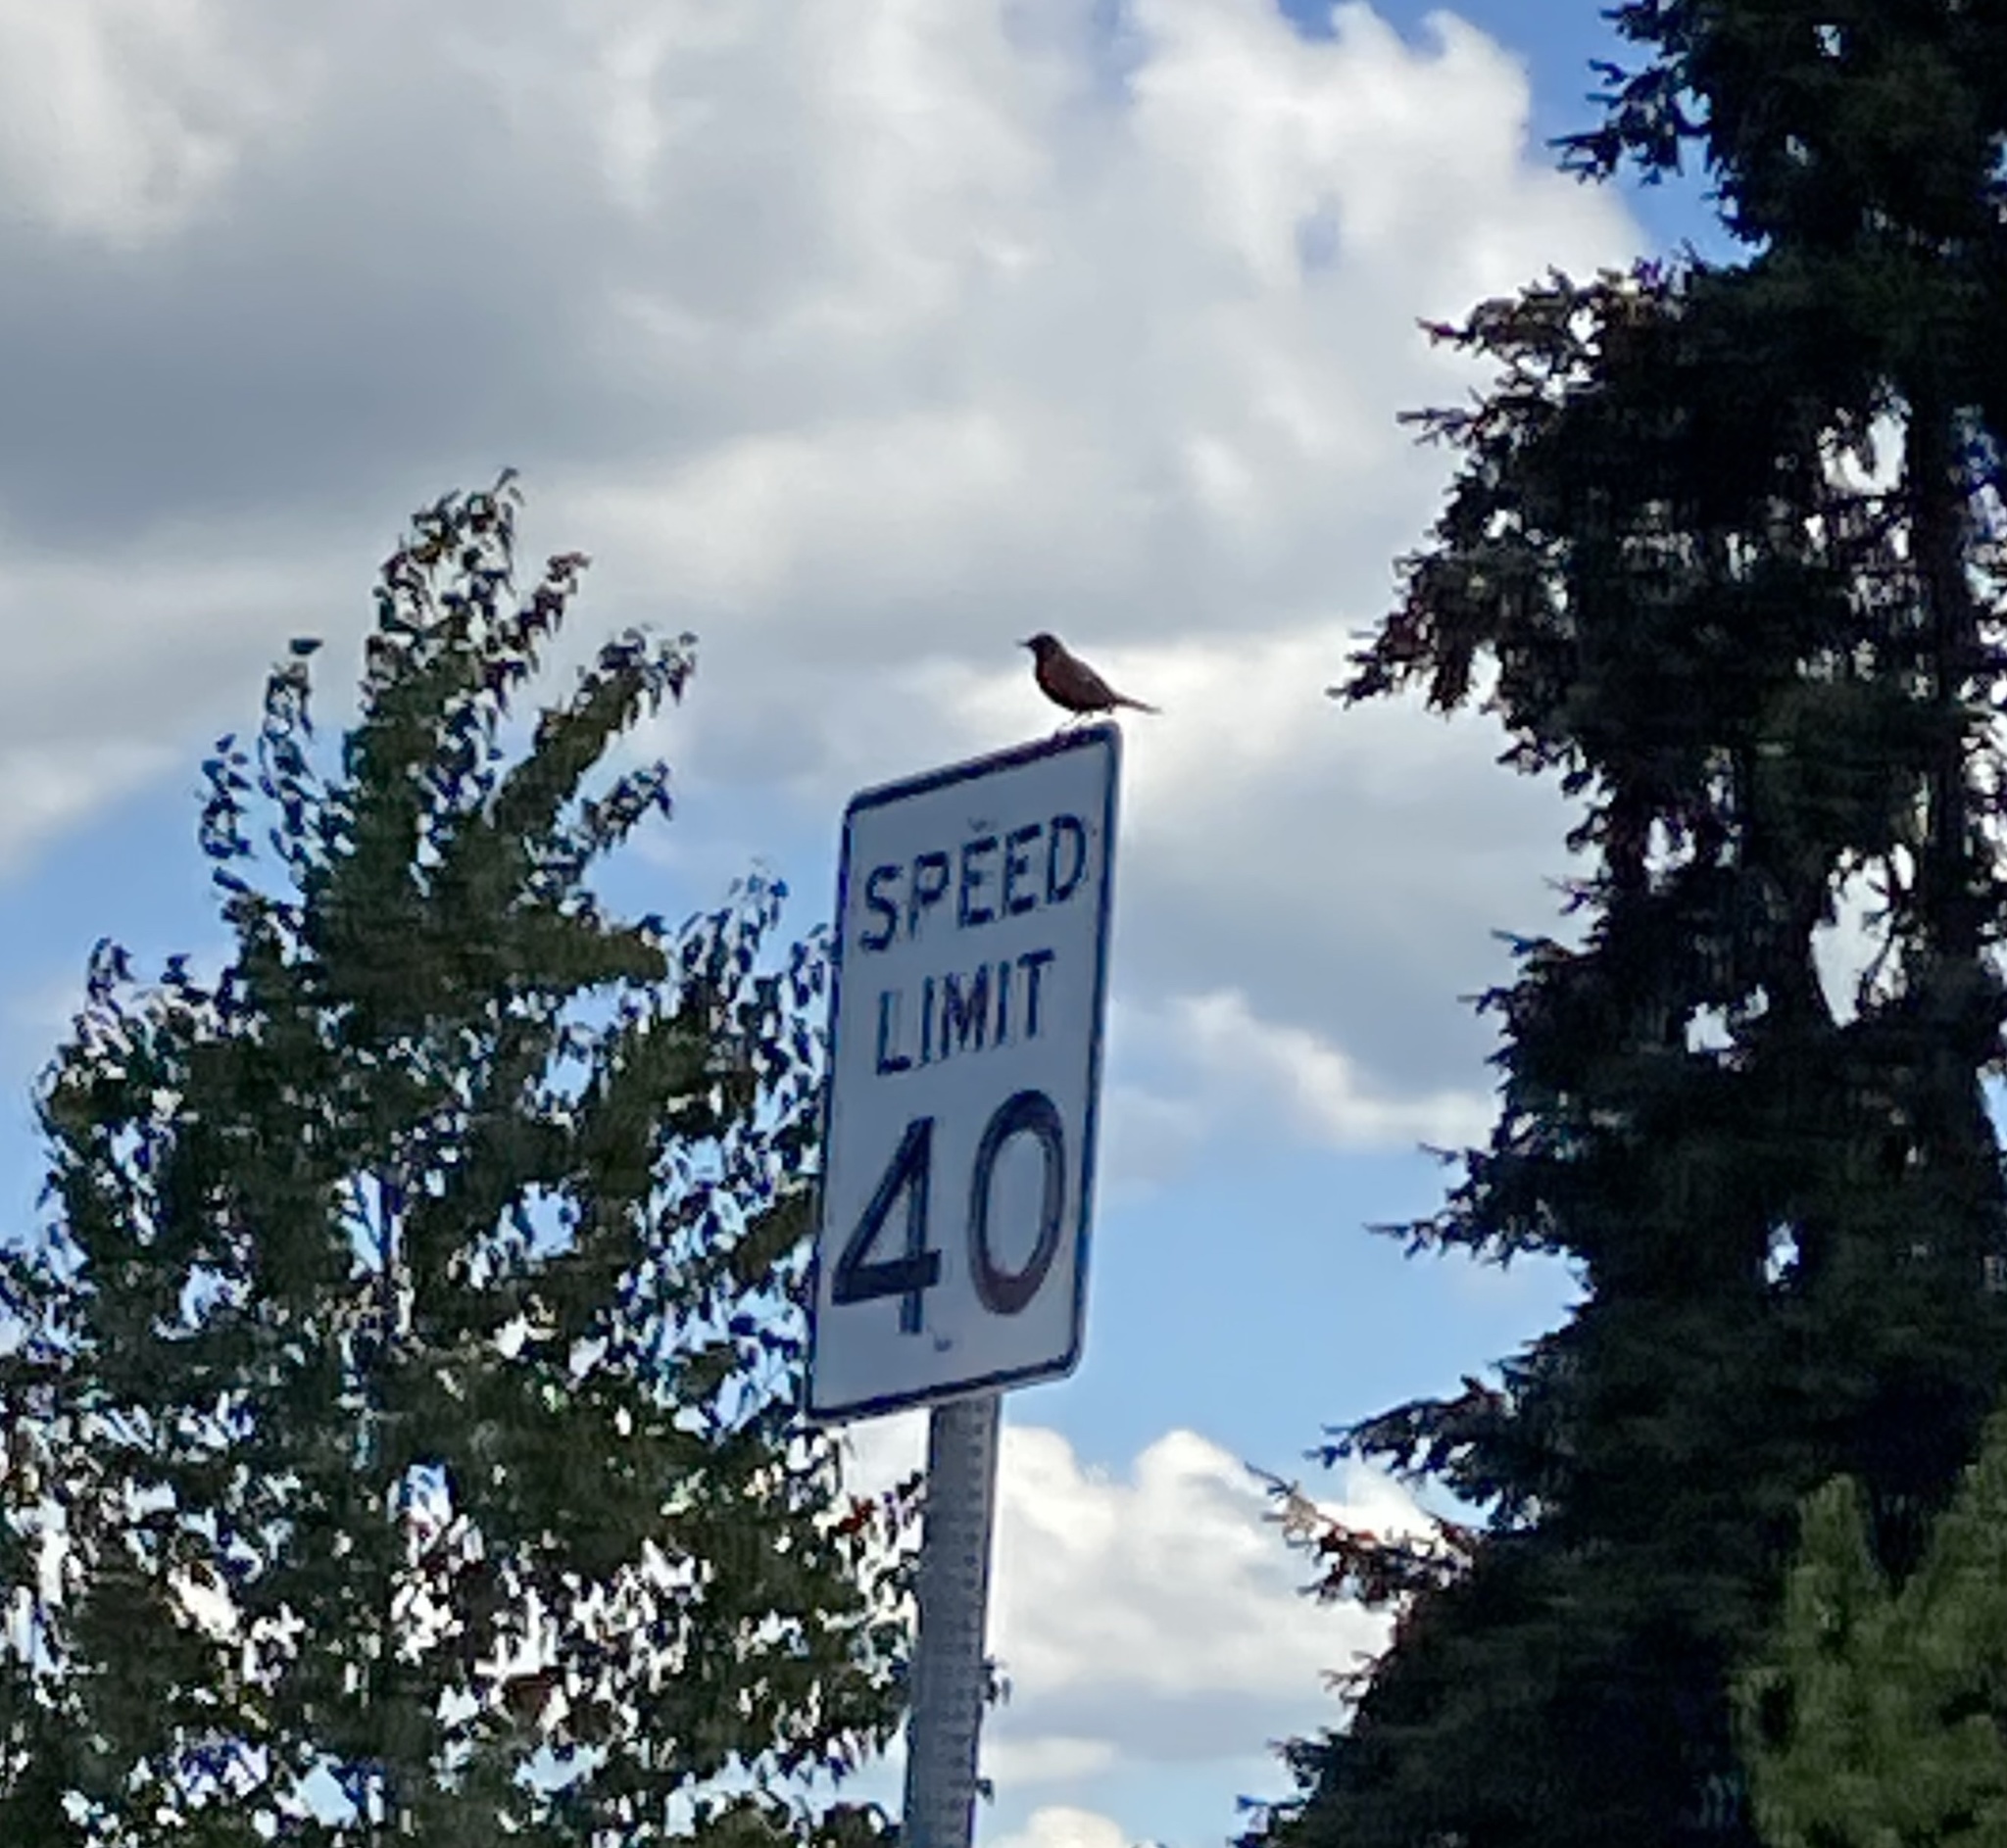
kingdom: Animalia
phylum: Chordata
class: Aves
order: Passeriformes
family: Turdidae
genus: Turdus
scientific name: Turdus migratorius
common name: American robin
